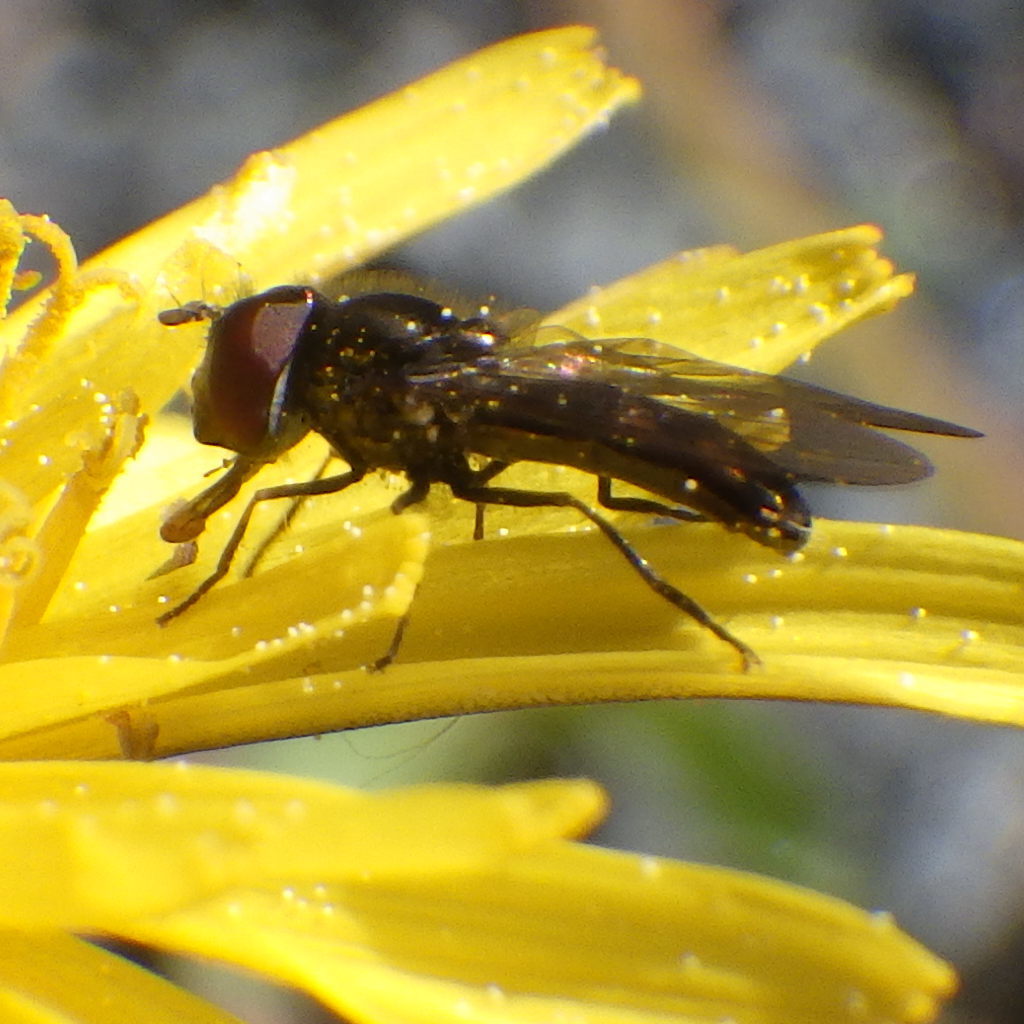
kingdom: Animalia
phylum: Arthropoda
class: Insecta
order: Diptera
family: Syrphidae
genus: Platycheirus
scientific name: Platycheirus obscurus
